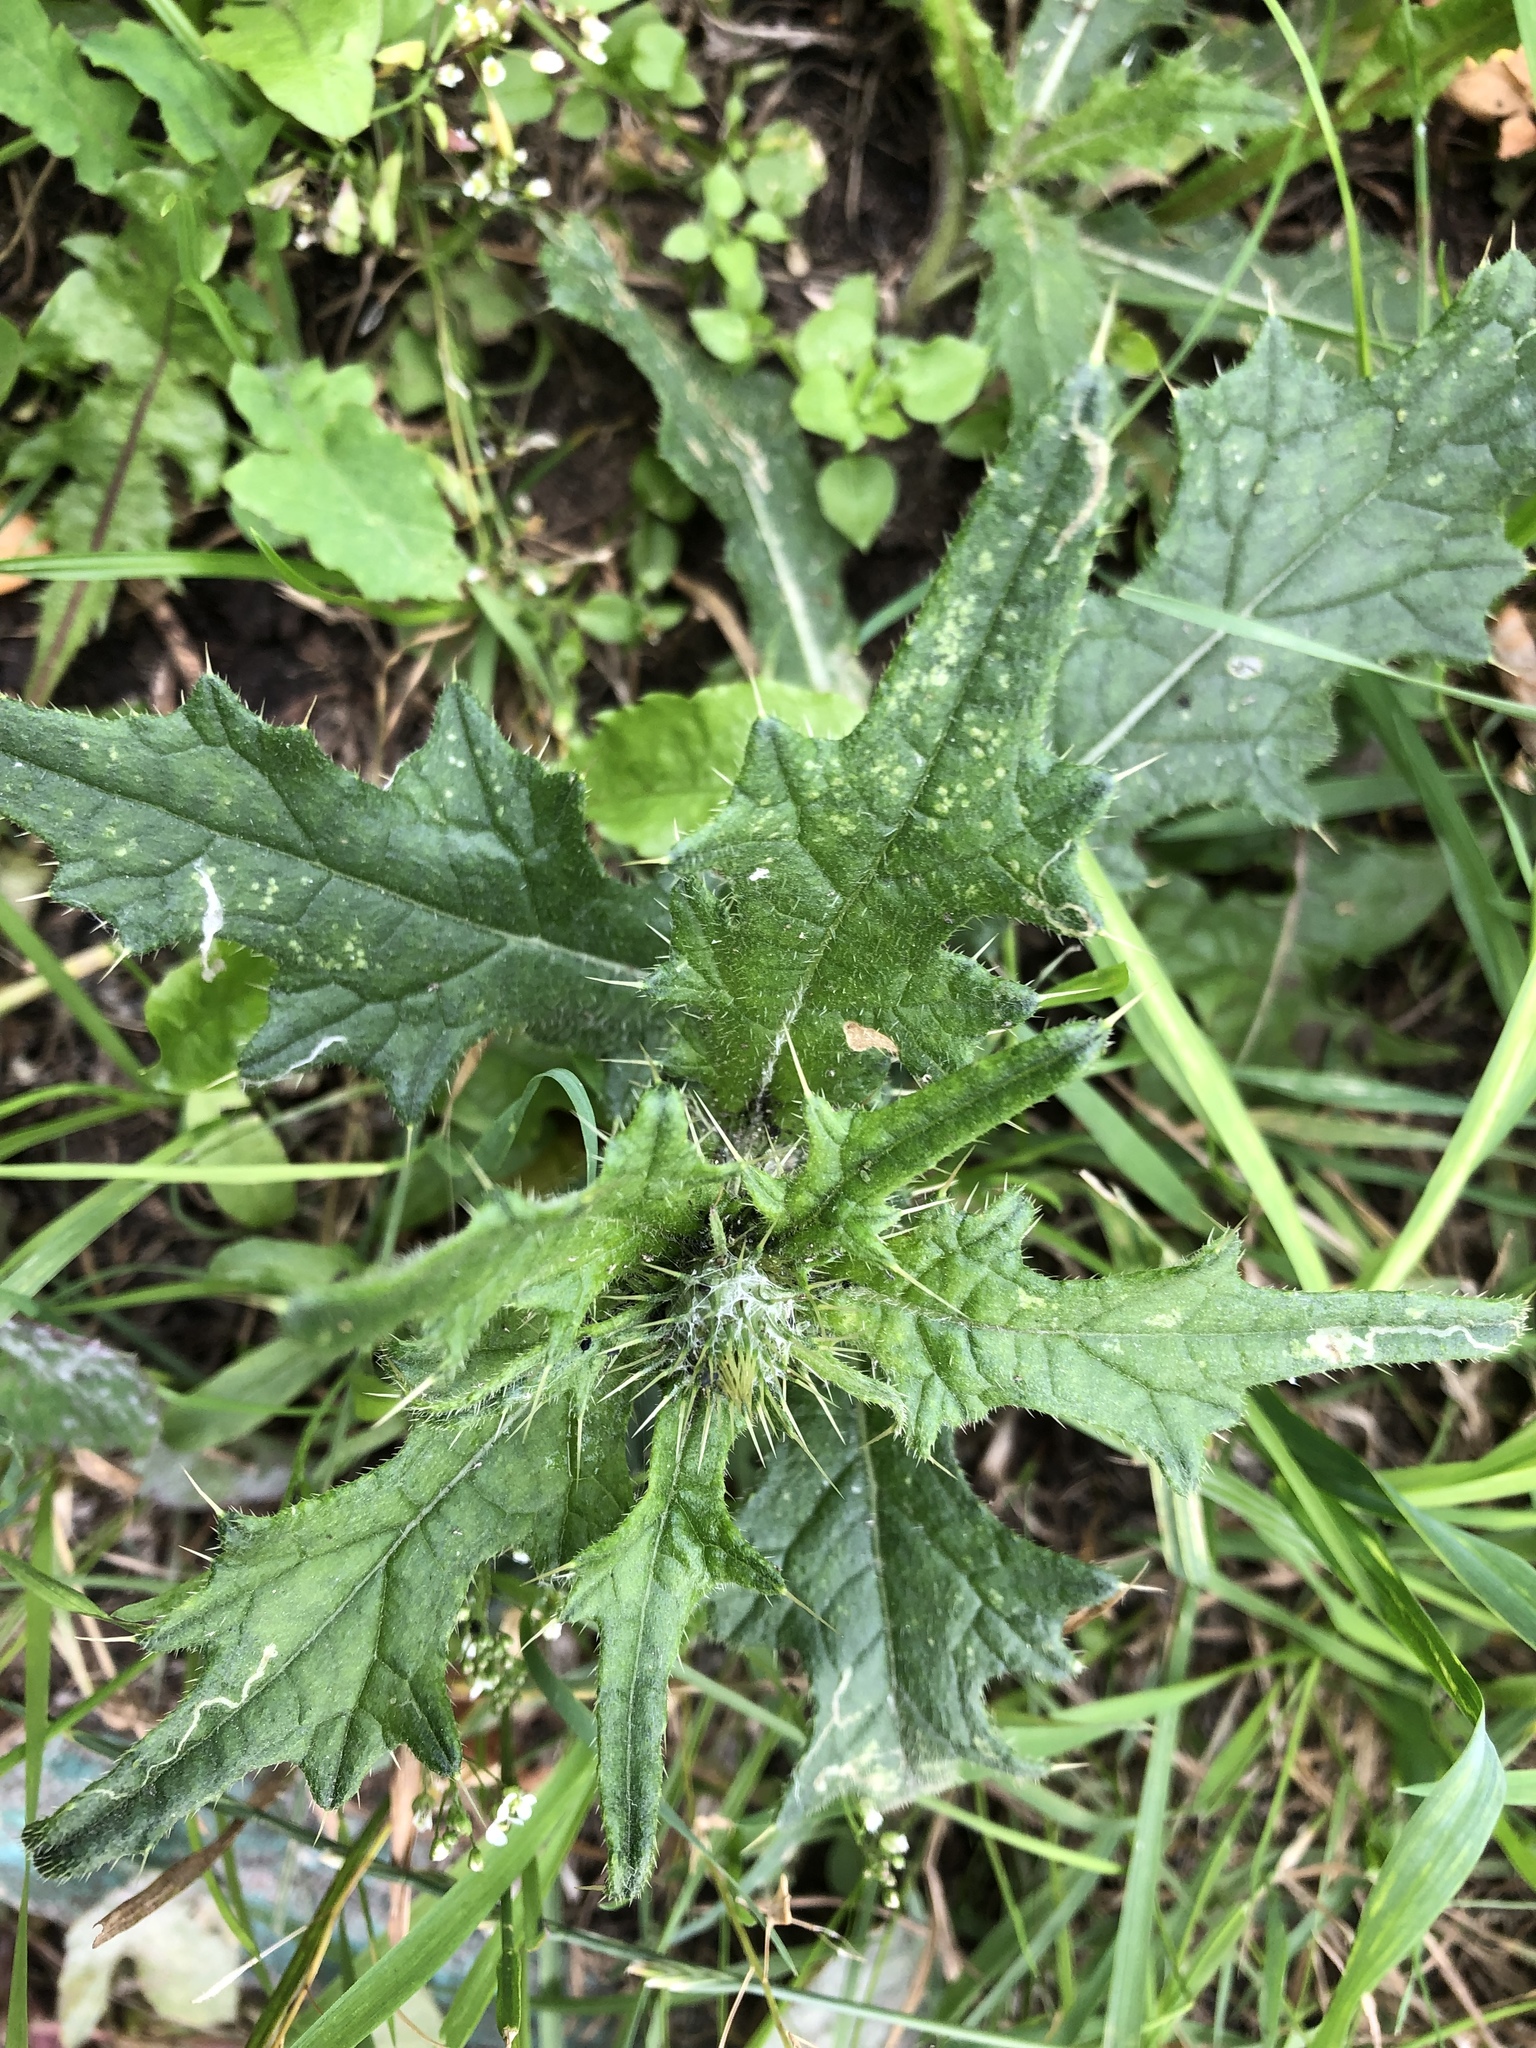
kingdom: Plantae
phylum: Tracheophyta
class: Magnoliopsida
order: Asterales
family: Asteraceae
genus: Cirsium
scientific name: Cirsium vulgare
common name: Bull thistle
